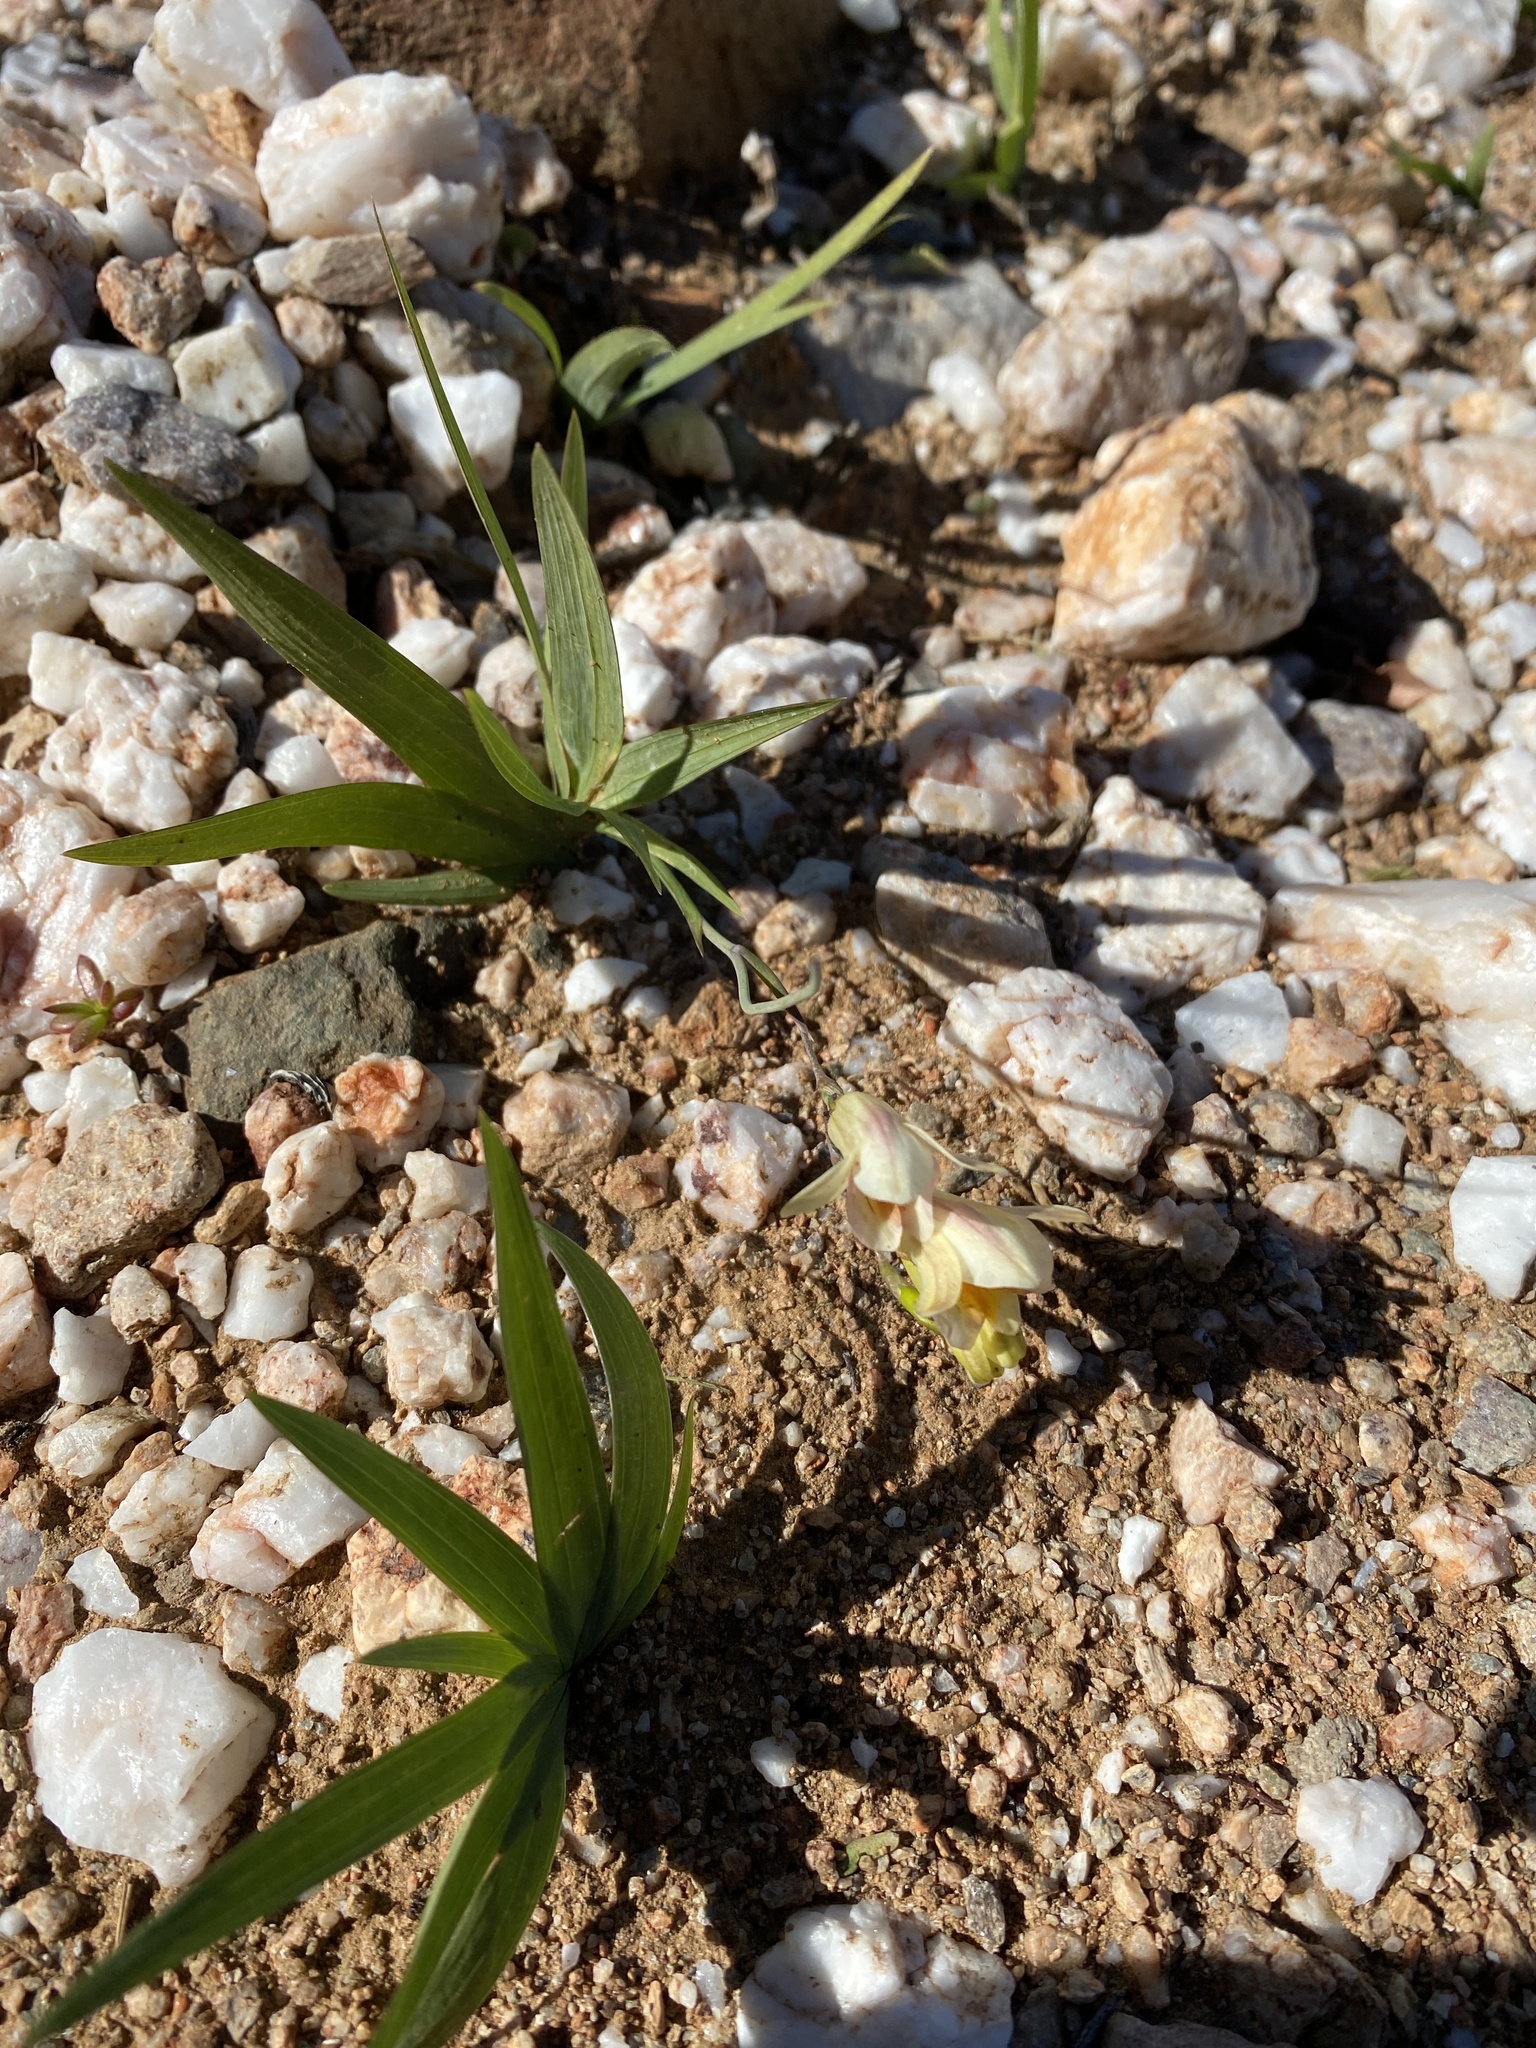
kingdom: Plantae
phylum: Tracheophyta
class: Liliopsida
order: Asparagales
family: Iridaceae
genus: Freesia
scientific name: Freesia refracta
